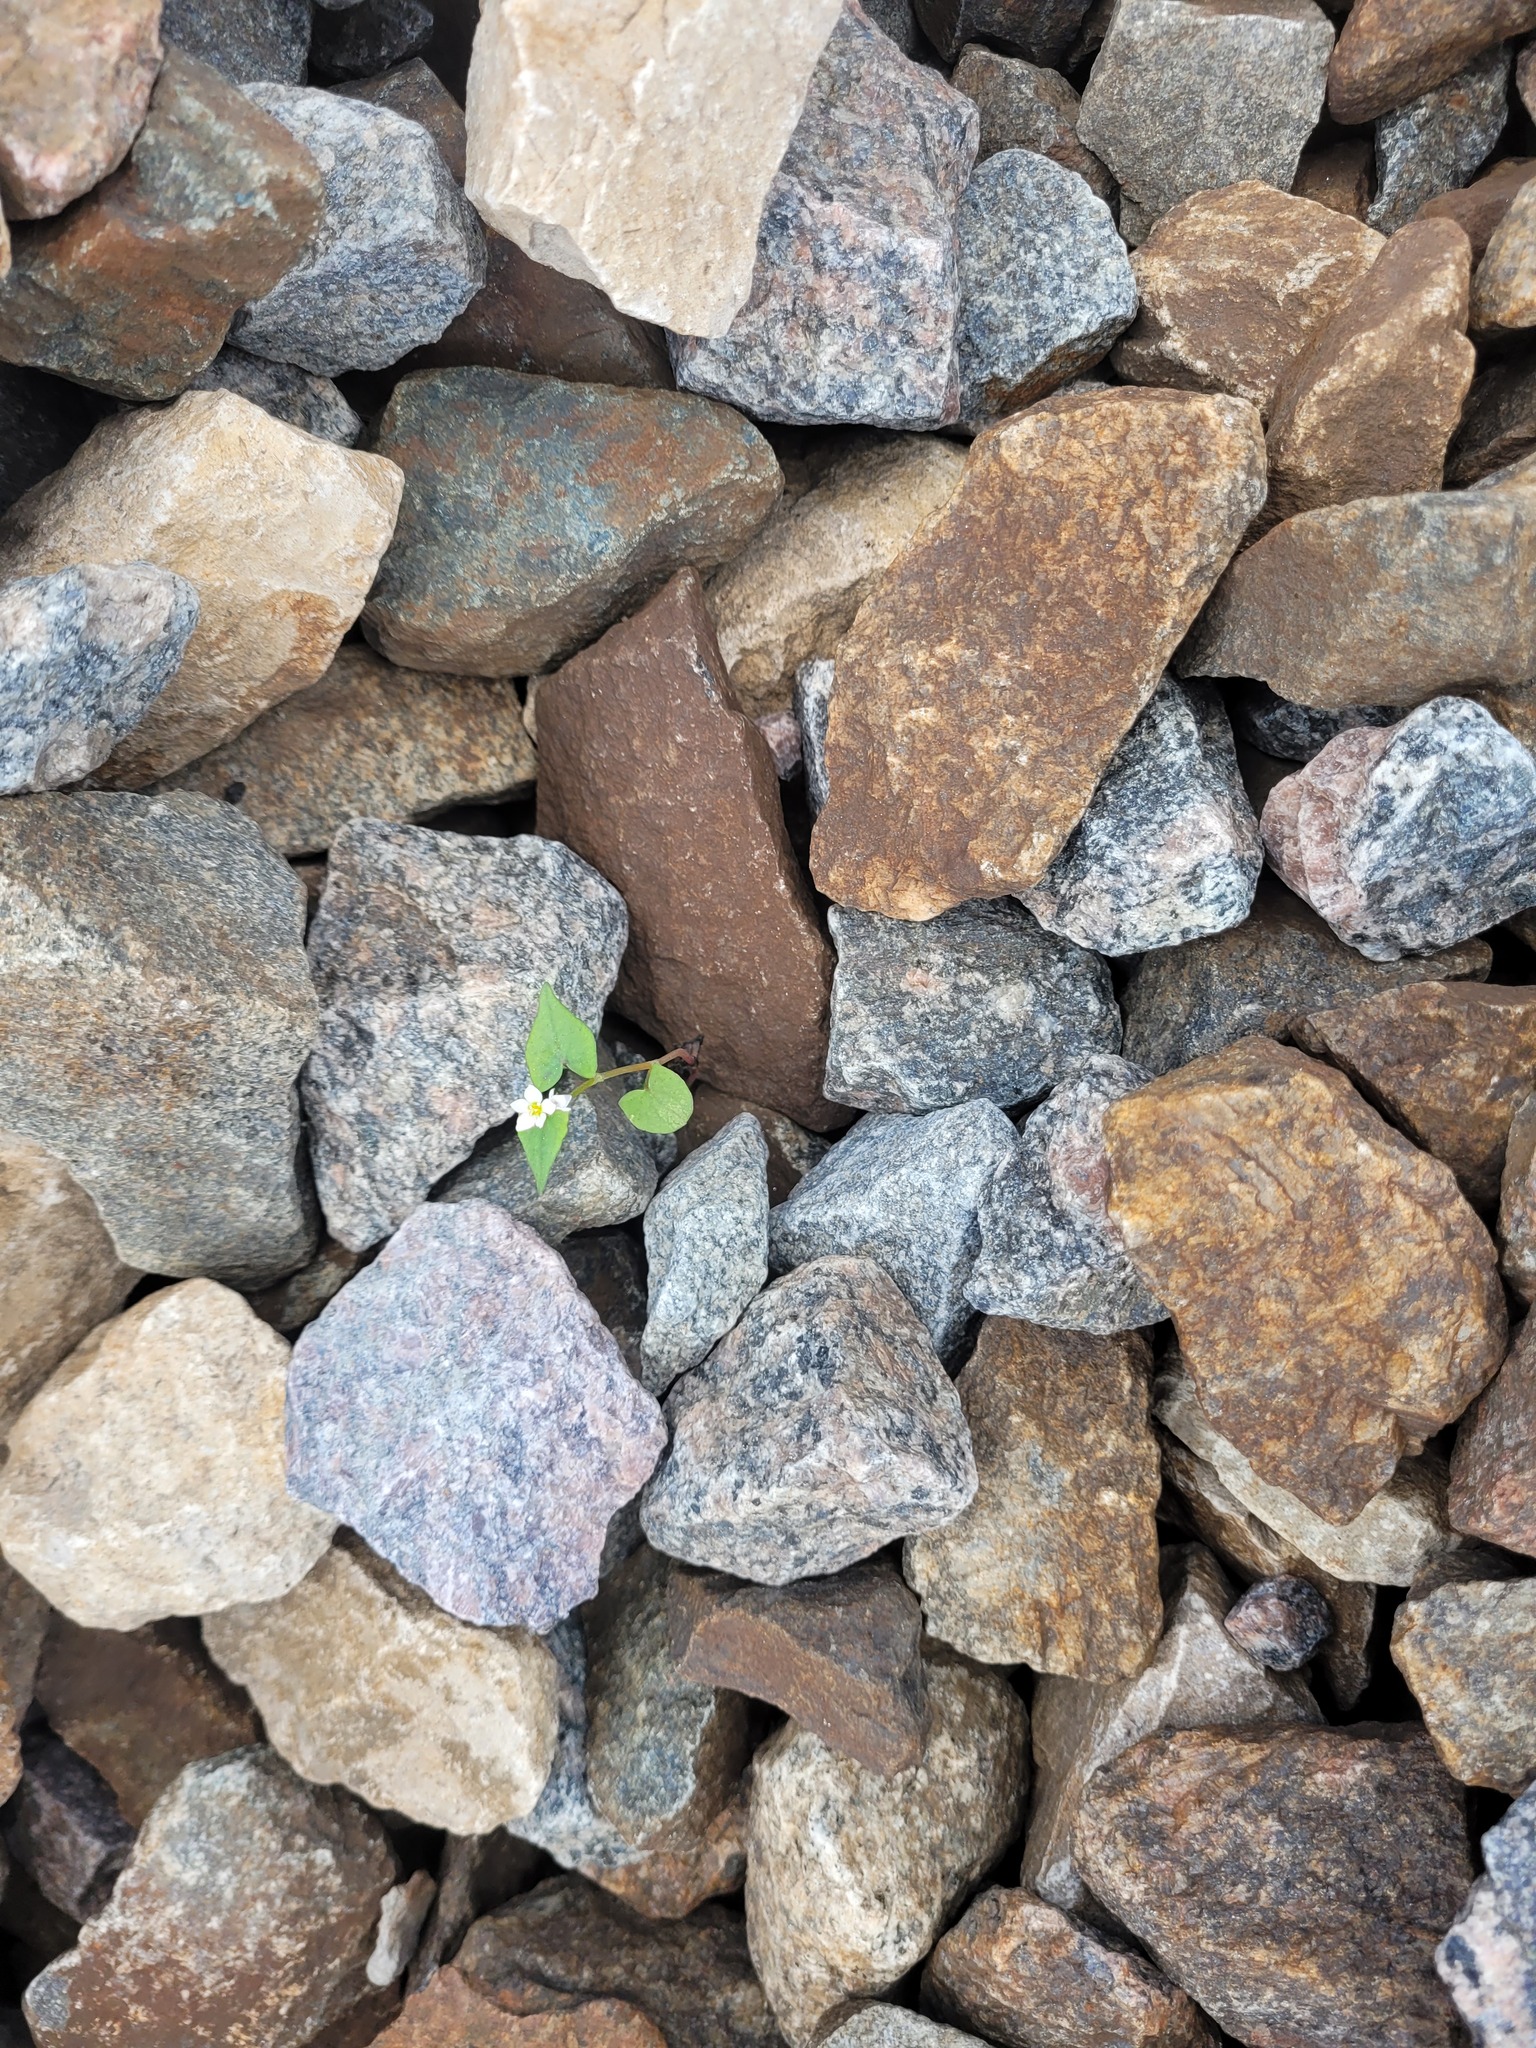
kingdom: Plantae
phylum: Tracheophyta
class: Magnoliopsida
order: Caryophyllales
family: Polygonaceae
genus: Fagopyrum
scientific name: Fagopyrum esculentum
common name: Buckwheat
